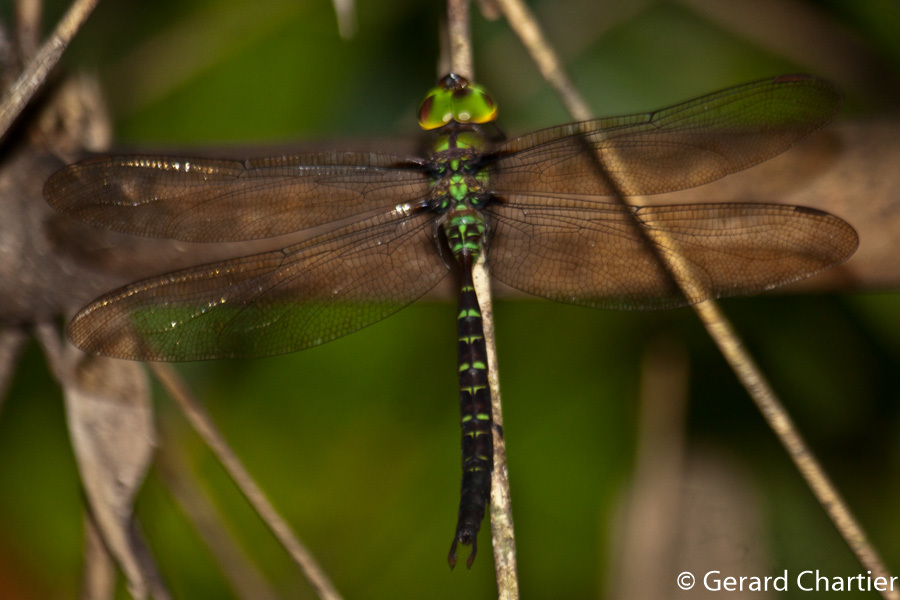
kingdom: Animalia
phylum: Arthropoda
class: Insecta
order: Odonata
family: Aeshnidae
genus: Heliaeschna
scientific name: Heliaeschna crassa
